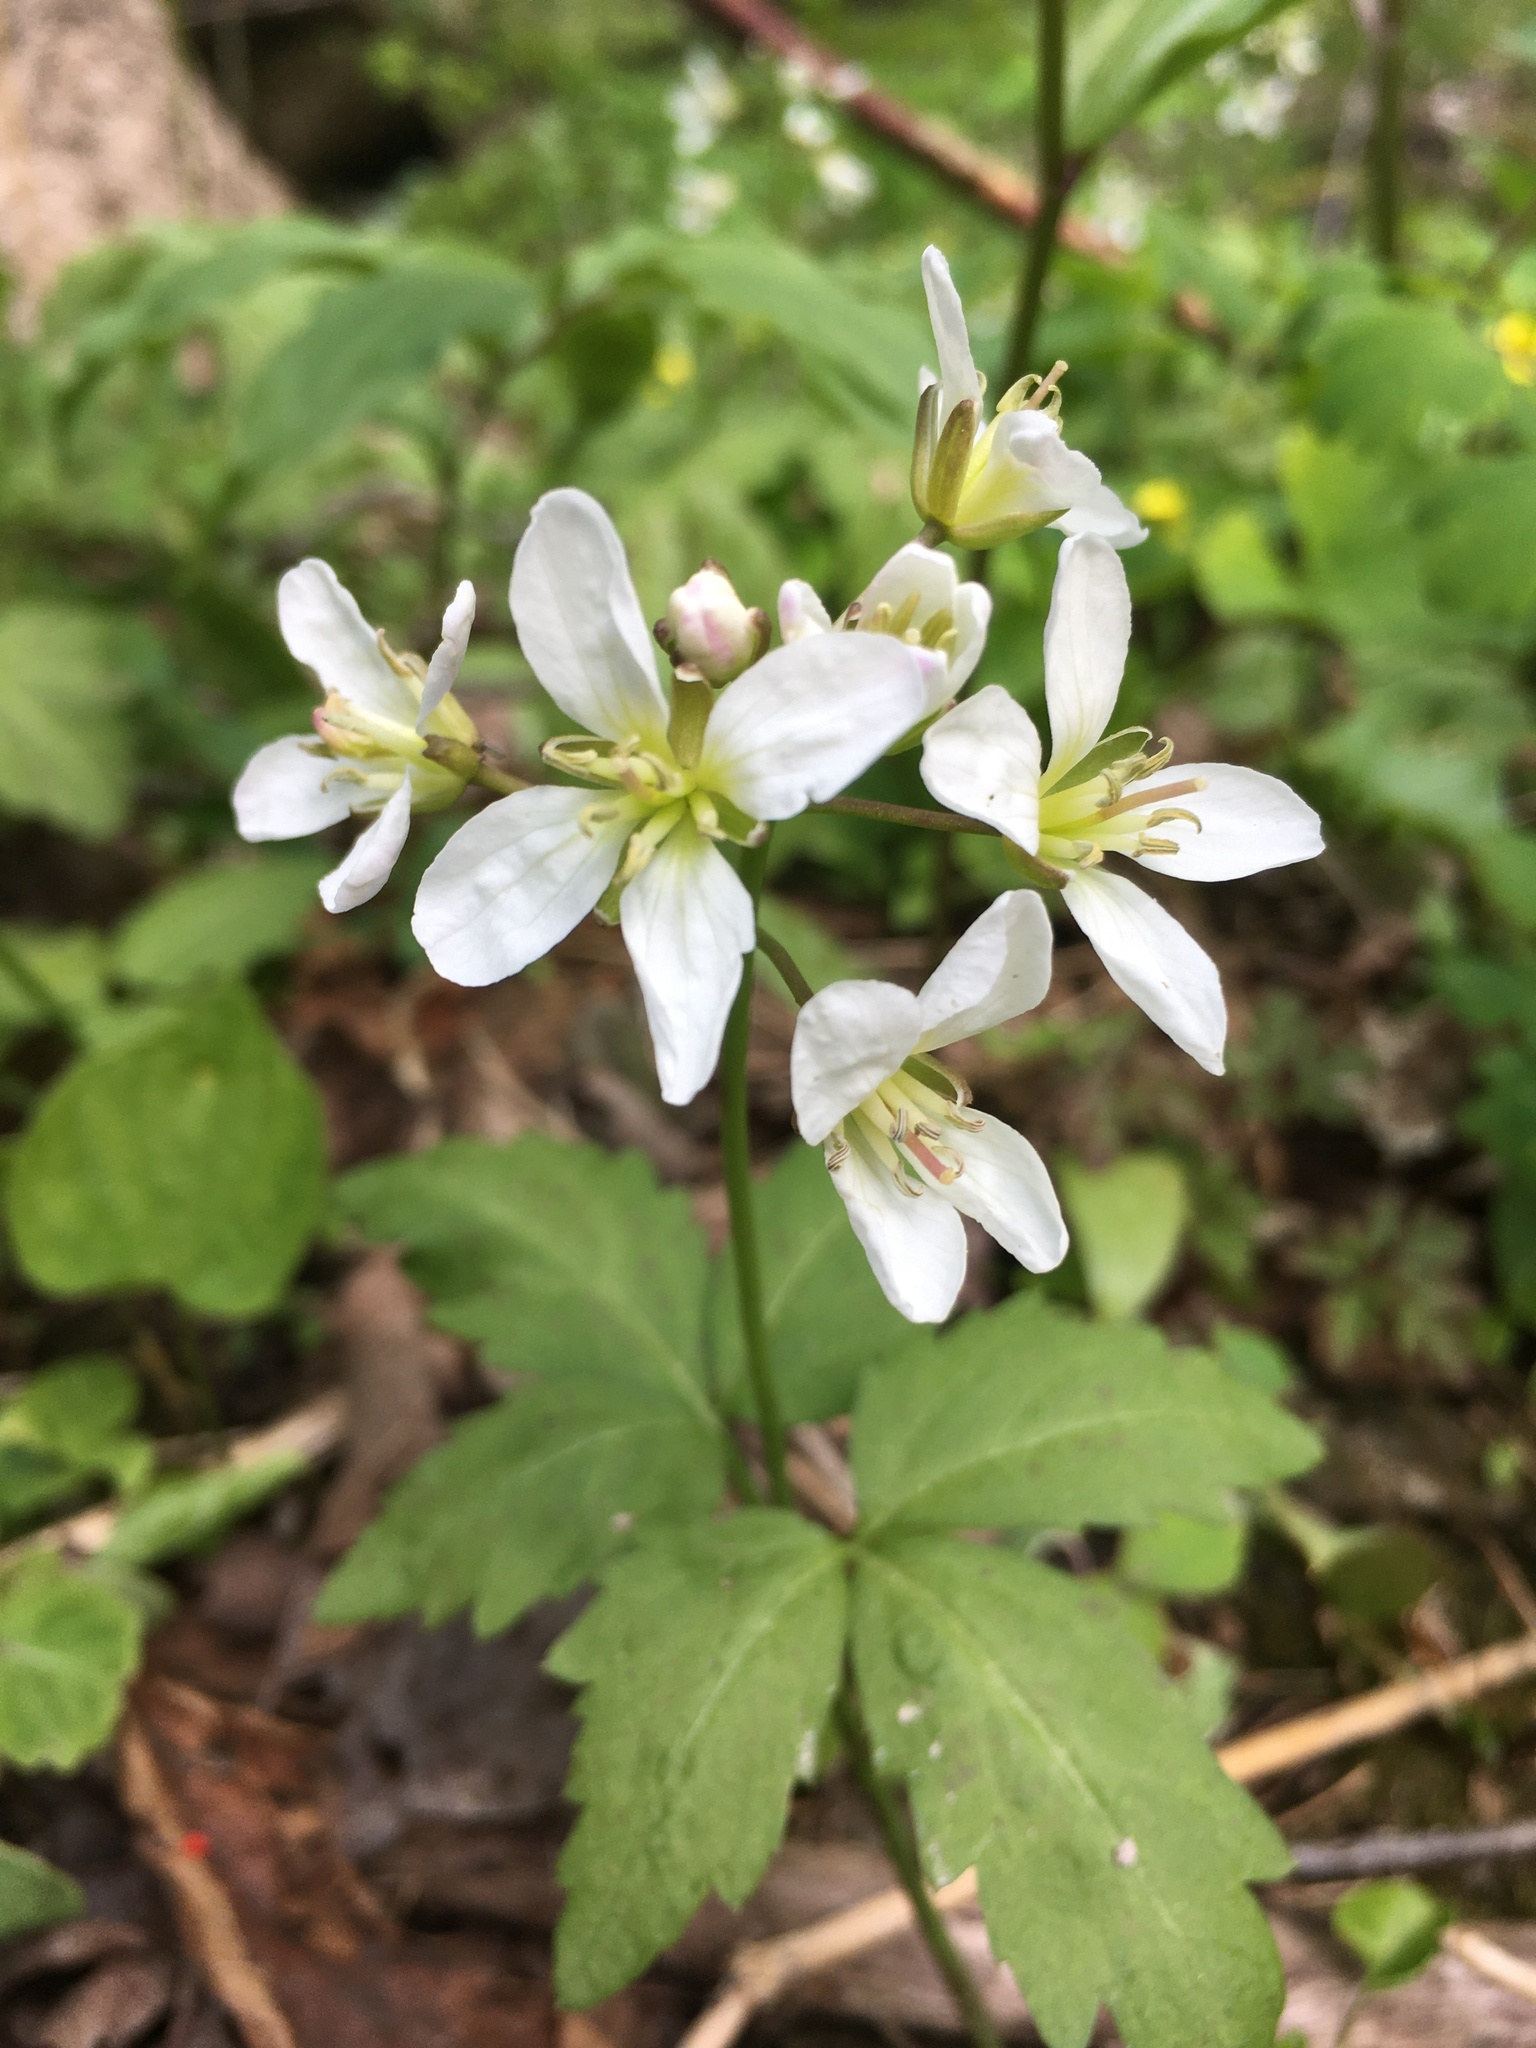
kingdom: Plantae
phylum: Tracheophyta
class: Magnoliopsida
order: Brassicales
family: Brassicaceae
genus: Cardamine
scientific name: Cardamine diphylla
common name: Broad-leaved toothwort
